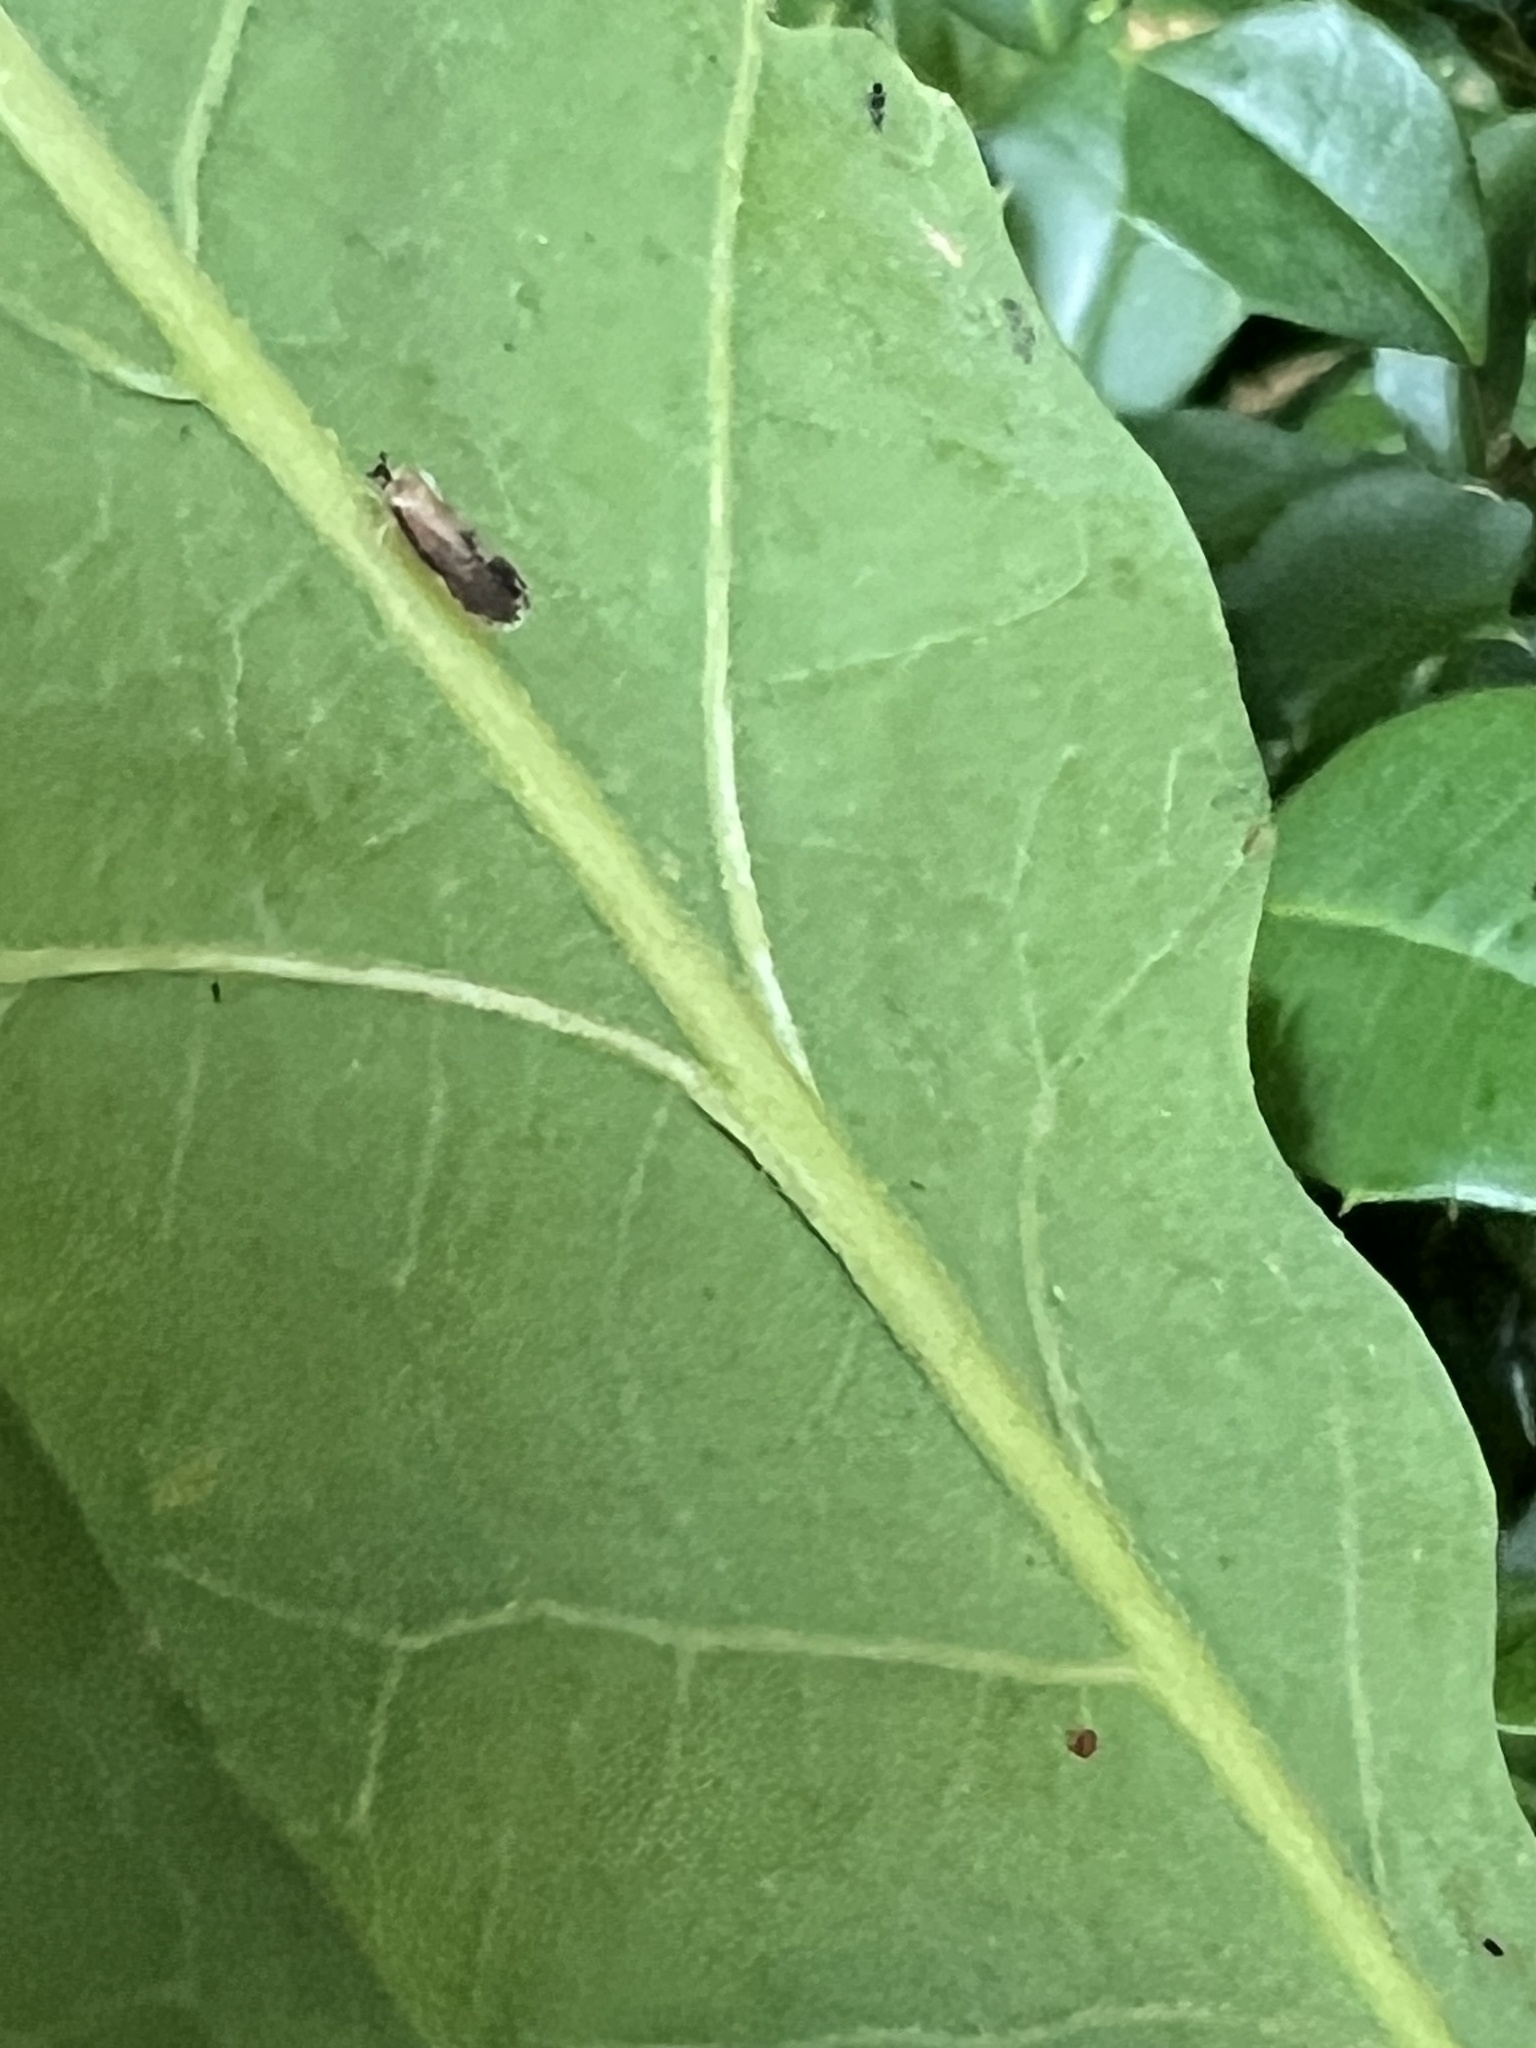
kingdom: Animalia
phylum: Arthropoda
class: Insecta
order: Hemiptera
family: Derbidae
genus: Patara
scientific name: Patara vanduzei
